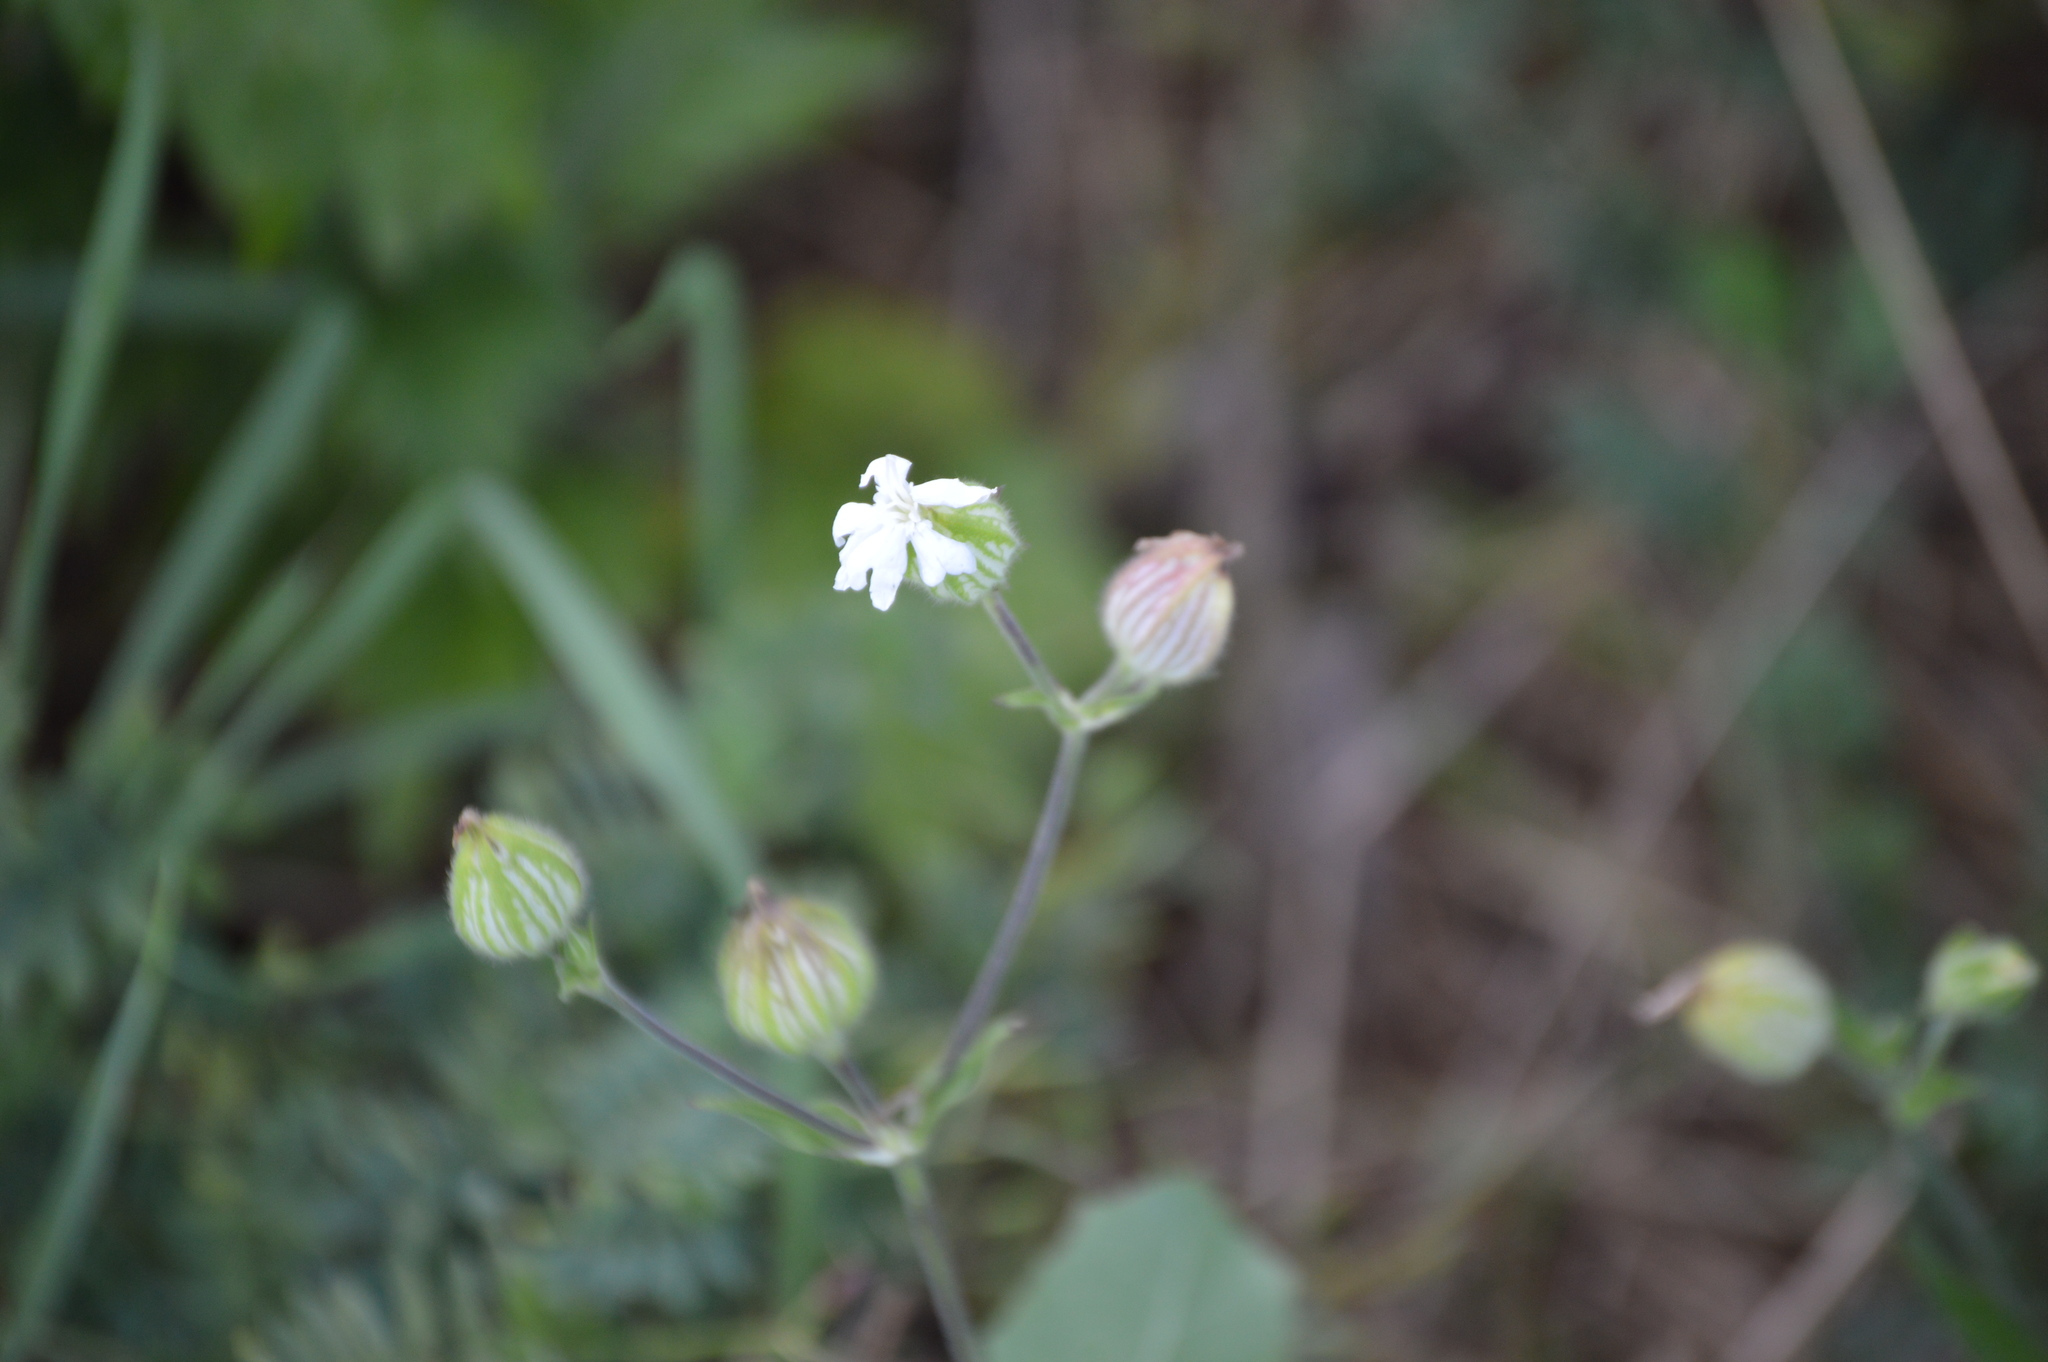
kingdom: Plantae
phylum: Tracheophyta
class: Magnoliopsida
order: Caryophyllales
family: Caryophyllaceae
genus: Silene
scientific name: Silene latifolia
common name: White campion
